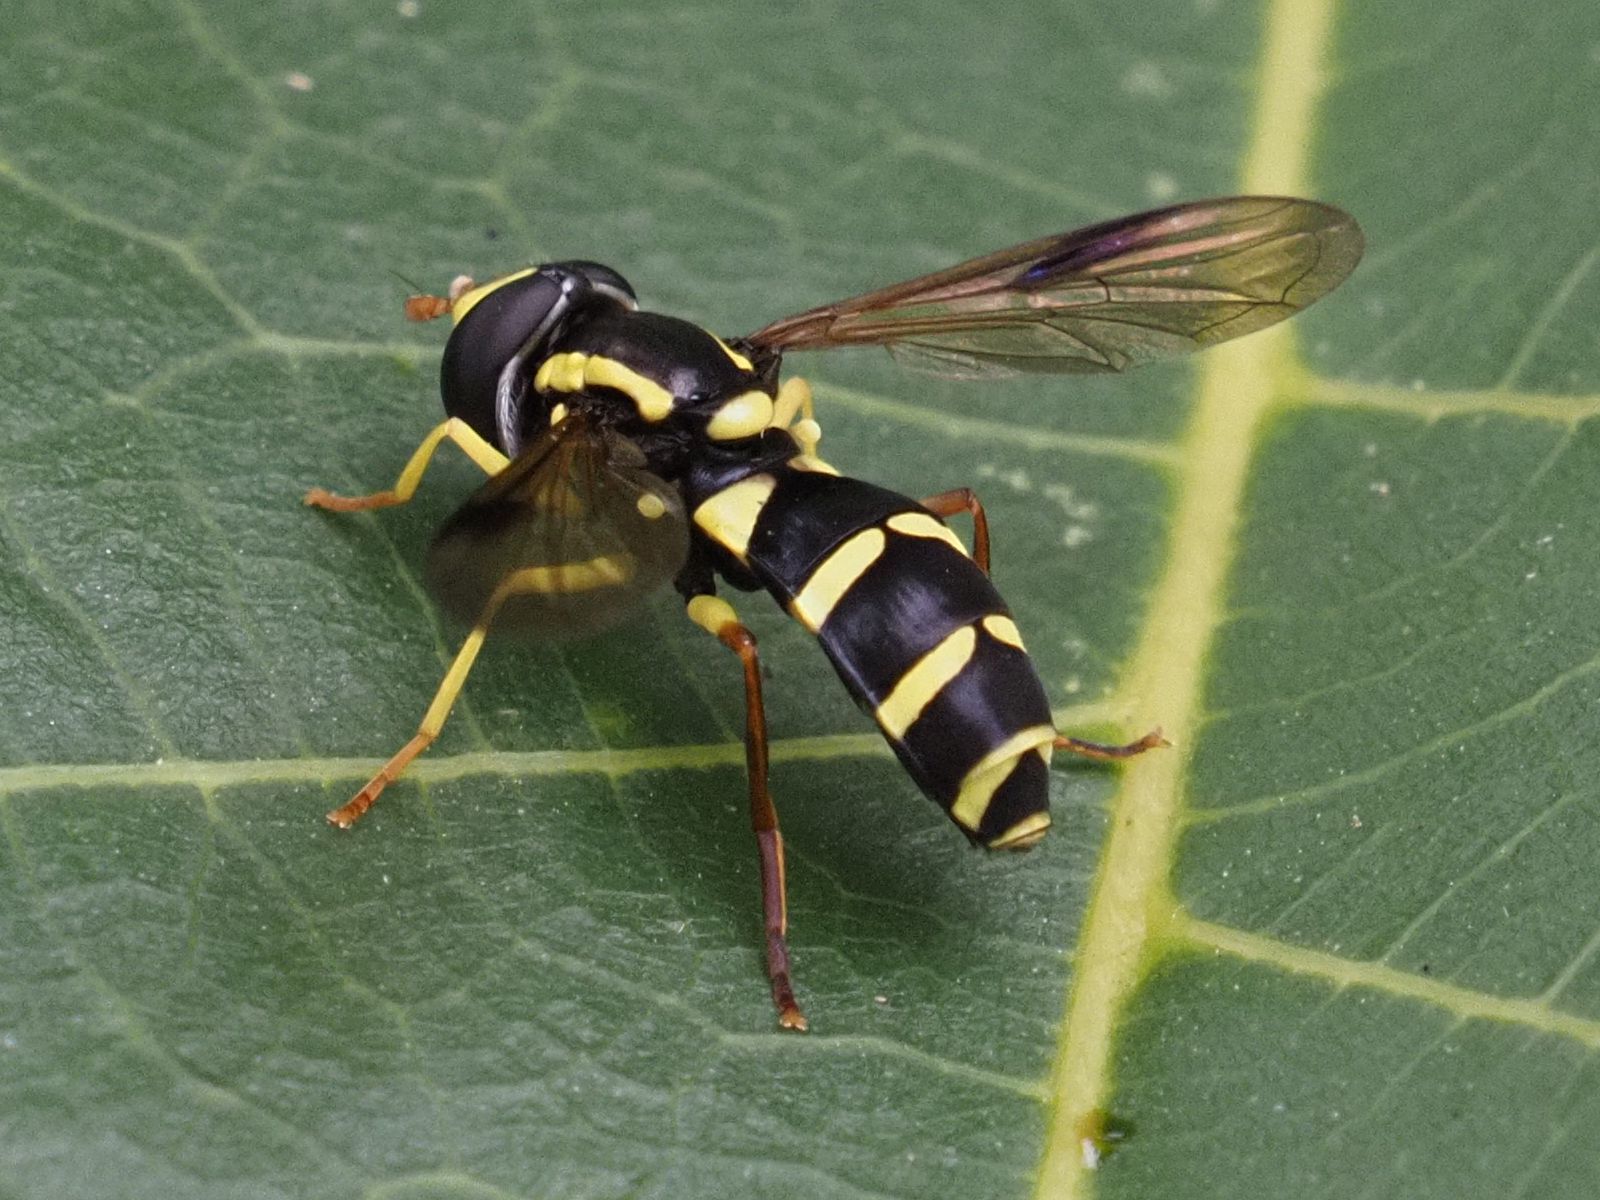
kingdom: Animalia
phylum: Arthropoda
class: Insecta
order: Diptera
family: Syrphidae
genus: Philhelius
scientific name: Philhelius pedissequum
